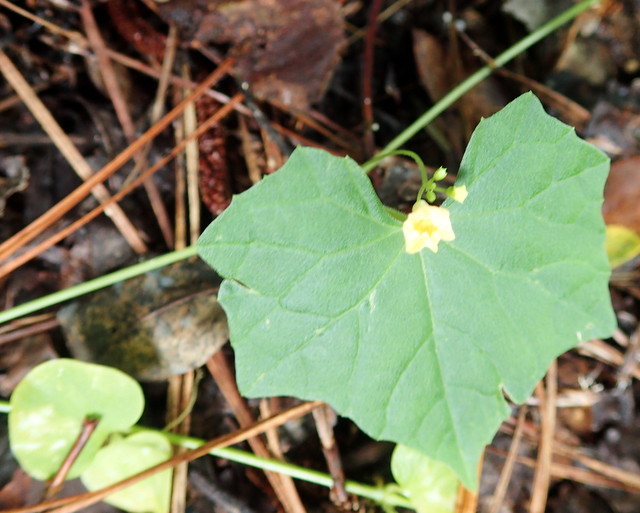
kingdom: Plantae
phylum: Tracheophyta
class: Magnoliopsida
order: Cucurbitales
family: Cucurbitaceae
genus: Melothria
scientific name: Melothria pendula
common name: Creeping-cucumber
